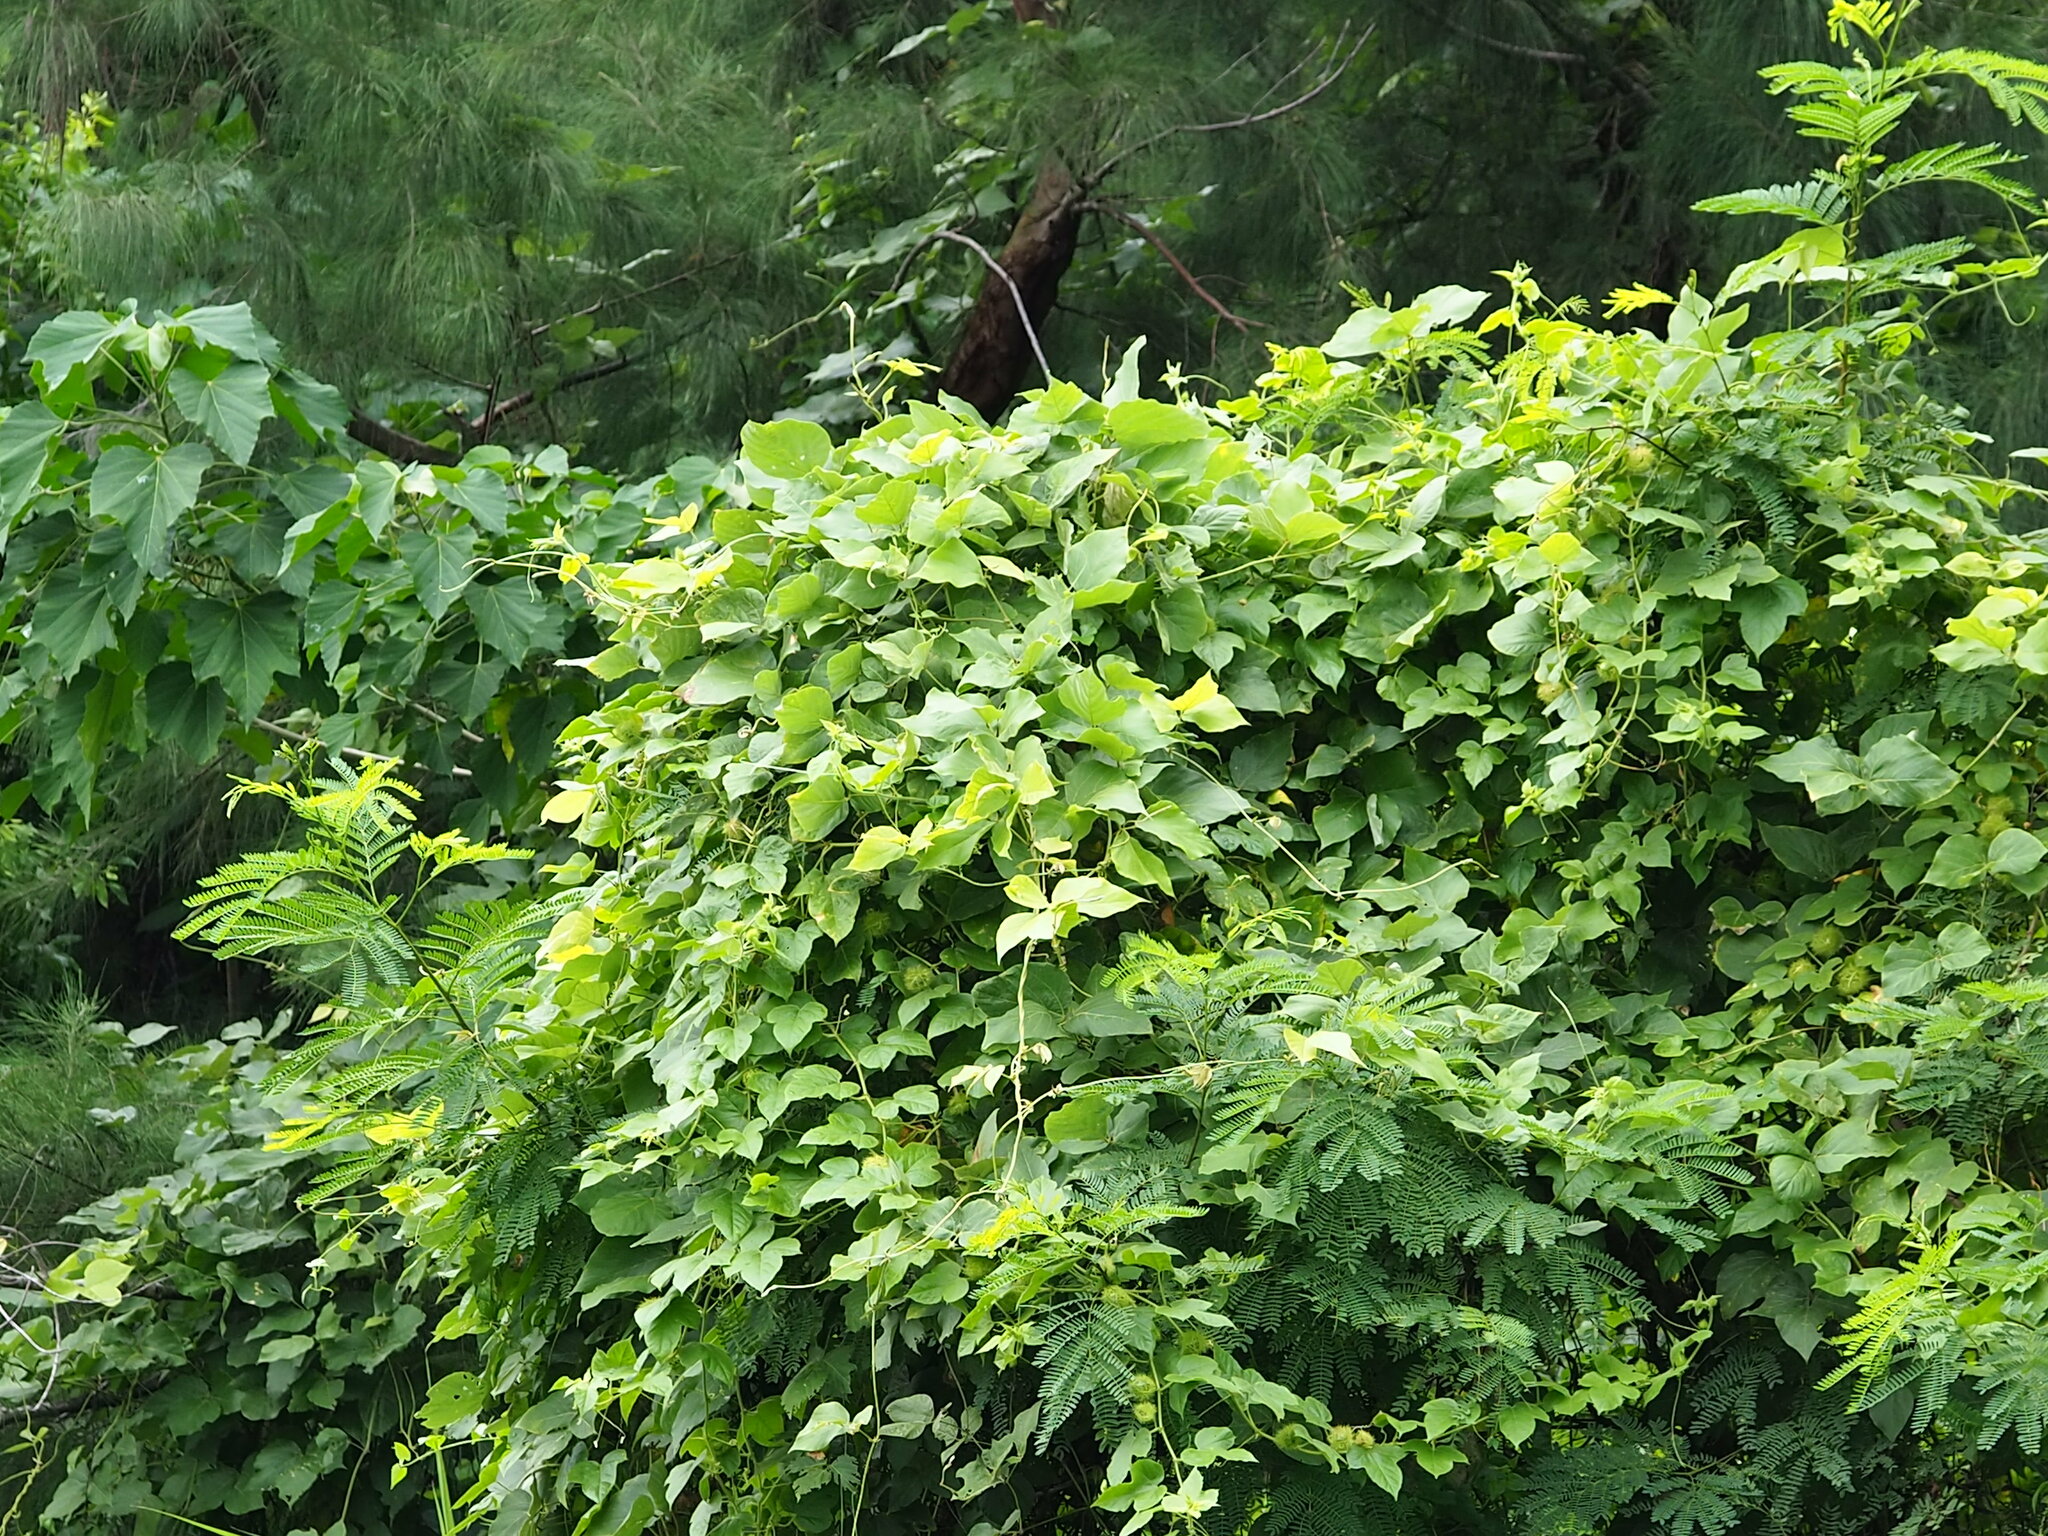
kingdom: Plantae
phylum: Tracheophyta
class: Magnoliopsida
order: Fabales
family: Fabaceae
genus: Pueraria
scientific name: Pueraria montana
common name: Kudzu
